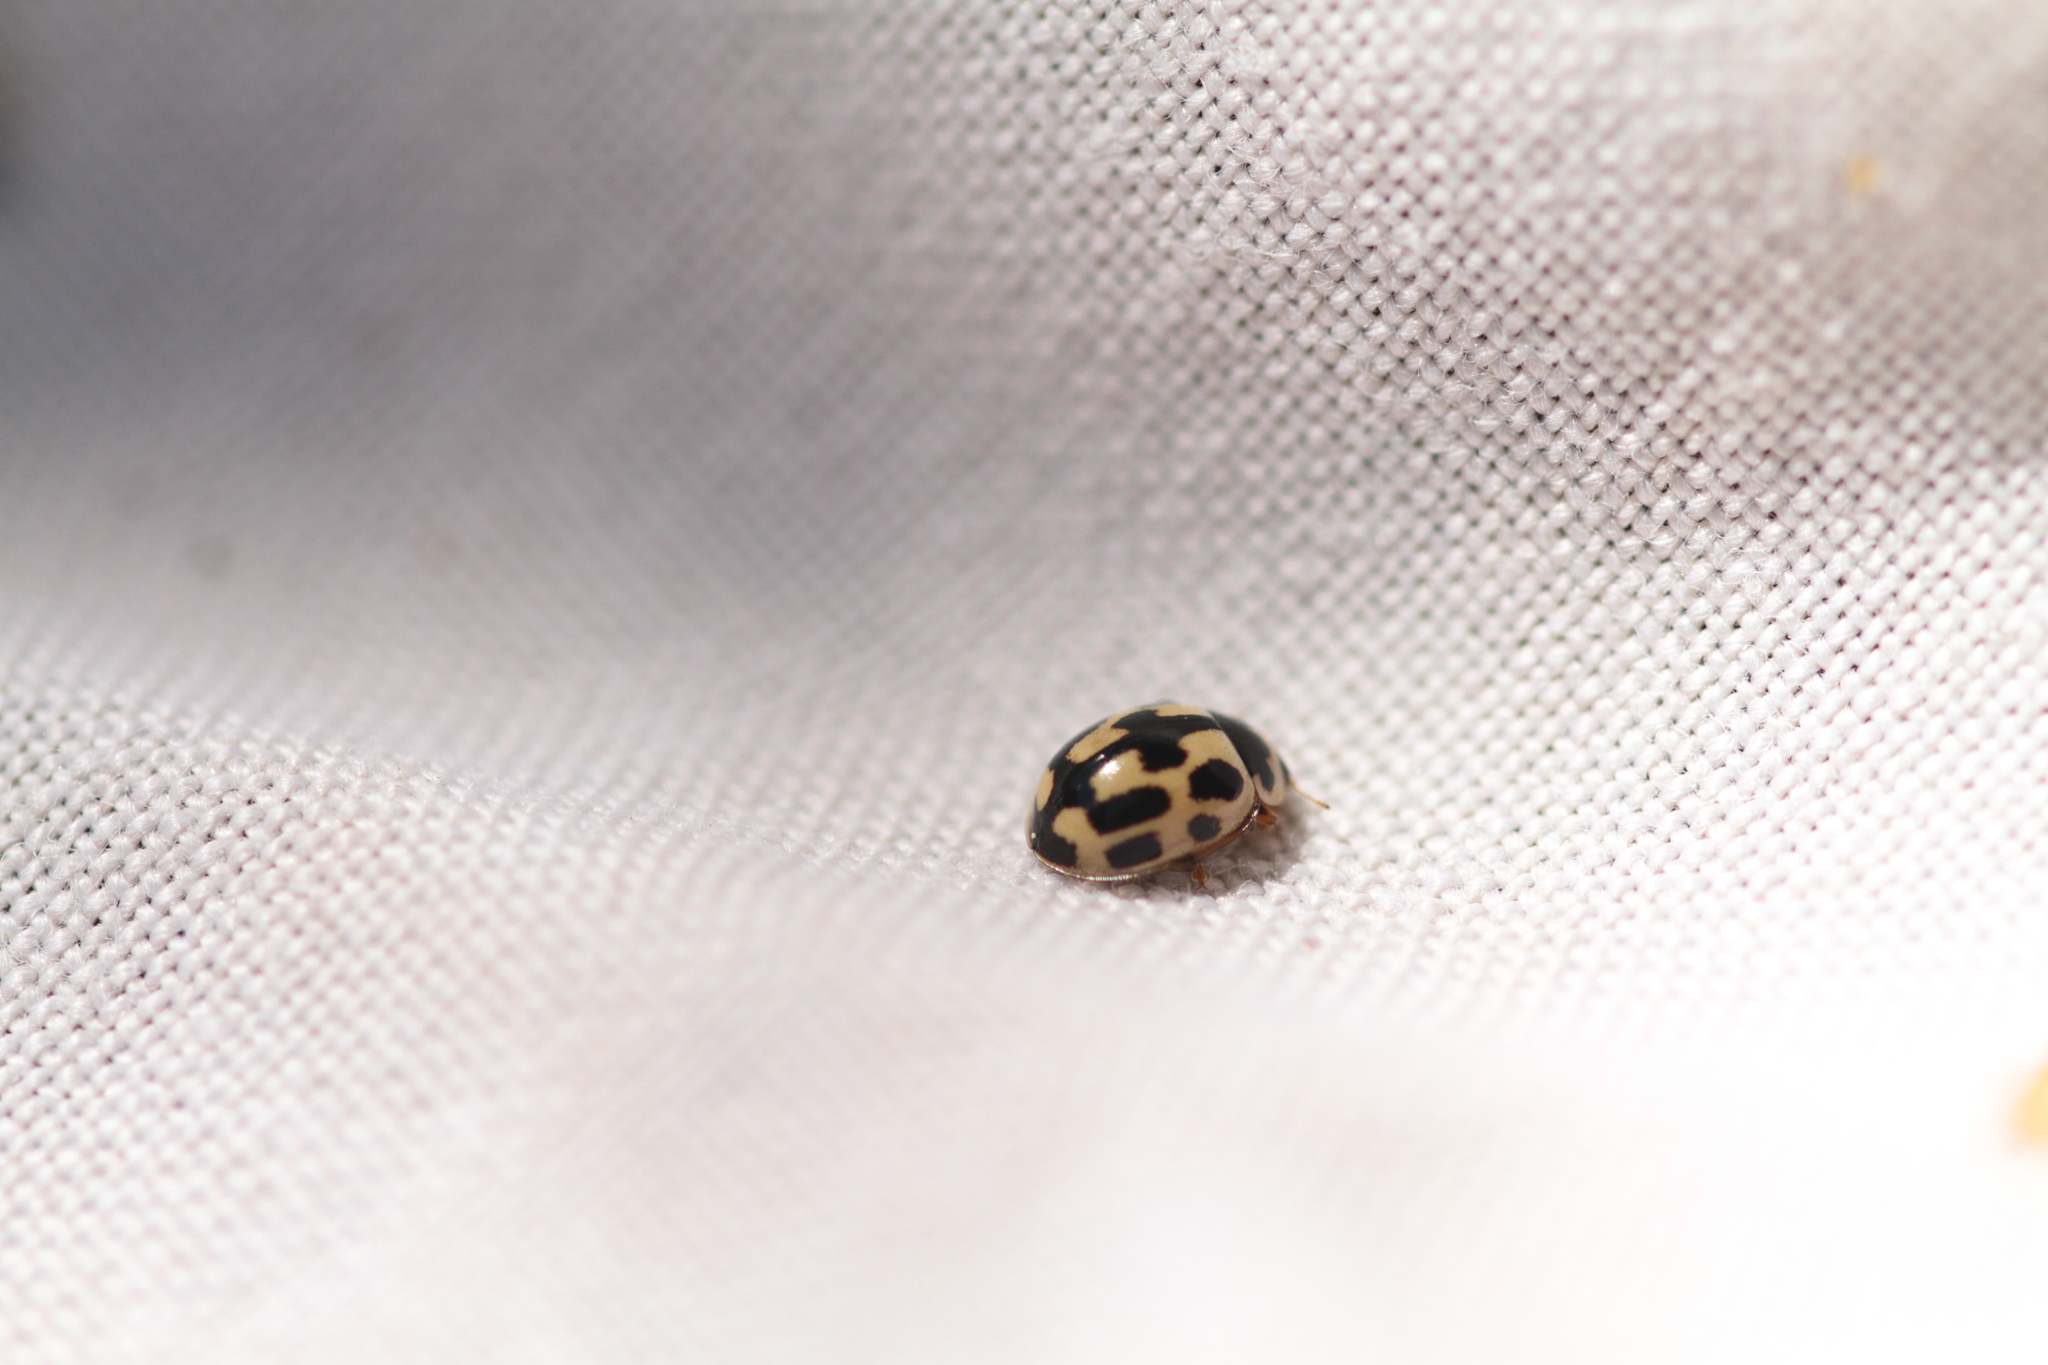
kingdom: Animalia
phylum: Arthropoda
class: Insecta
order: Coleoptera
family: Coccinellidae
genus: Propylaea
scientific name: Propylaea quatuordecimpunctata
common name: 14-spotted ladybird beetle
